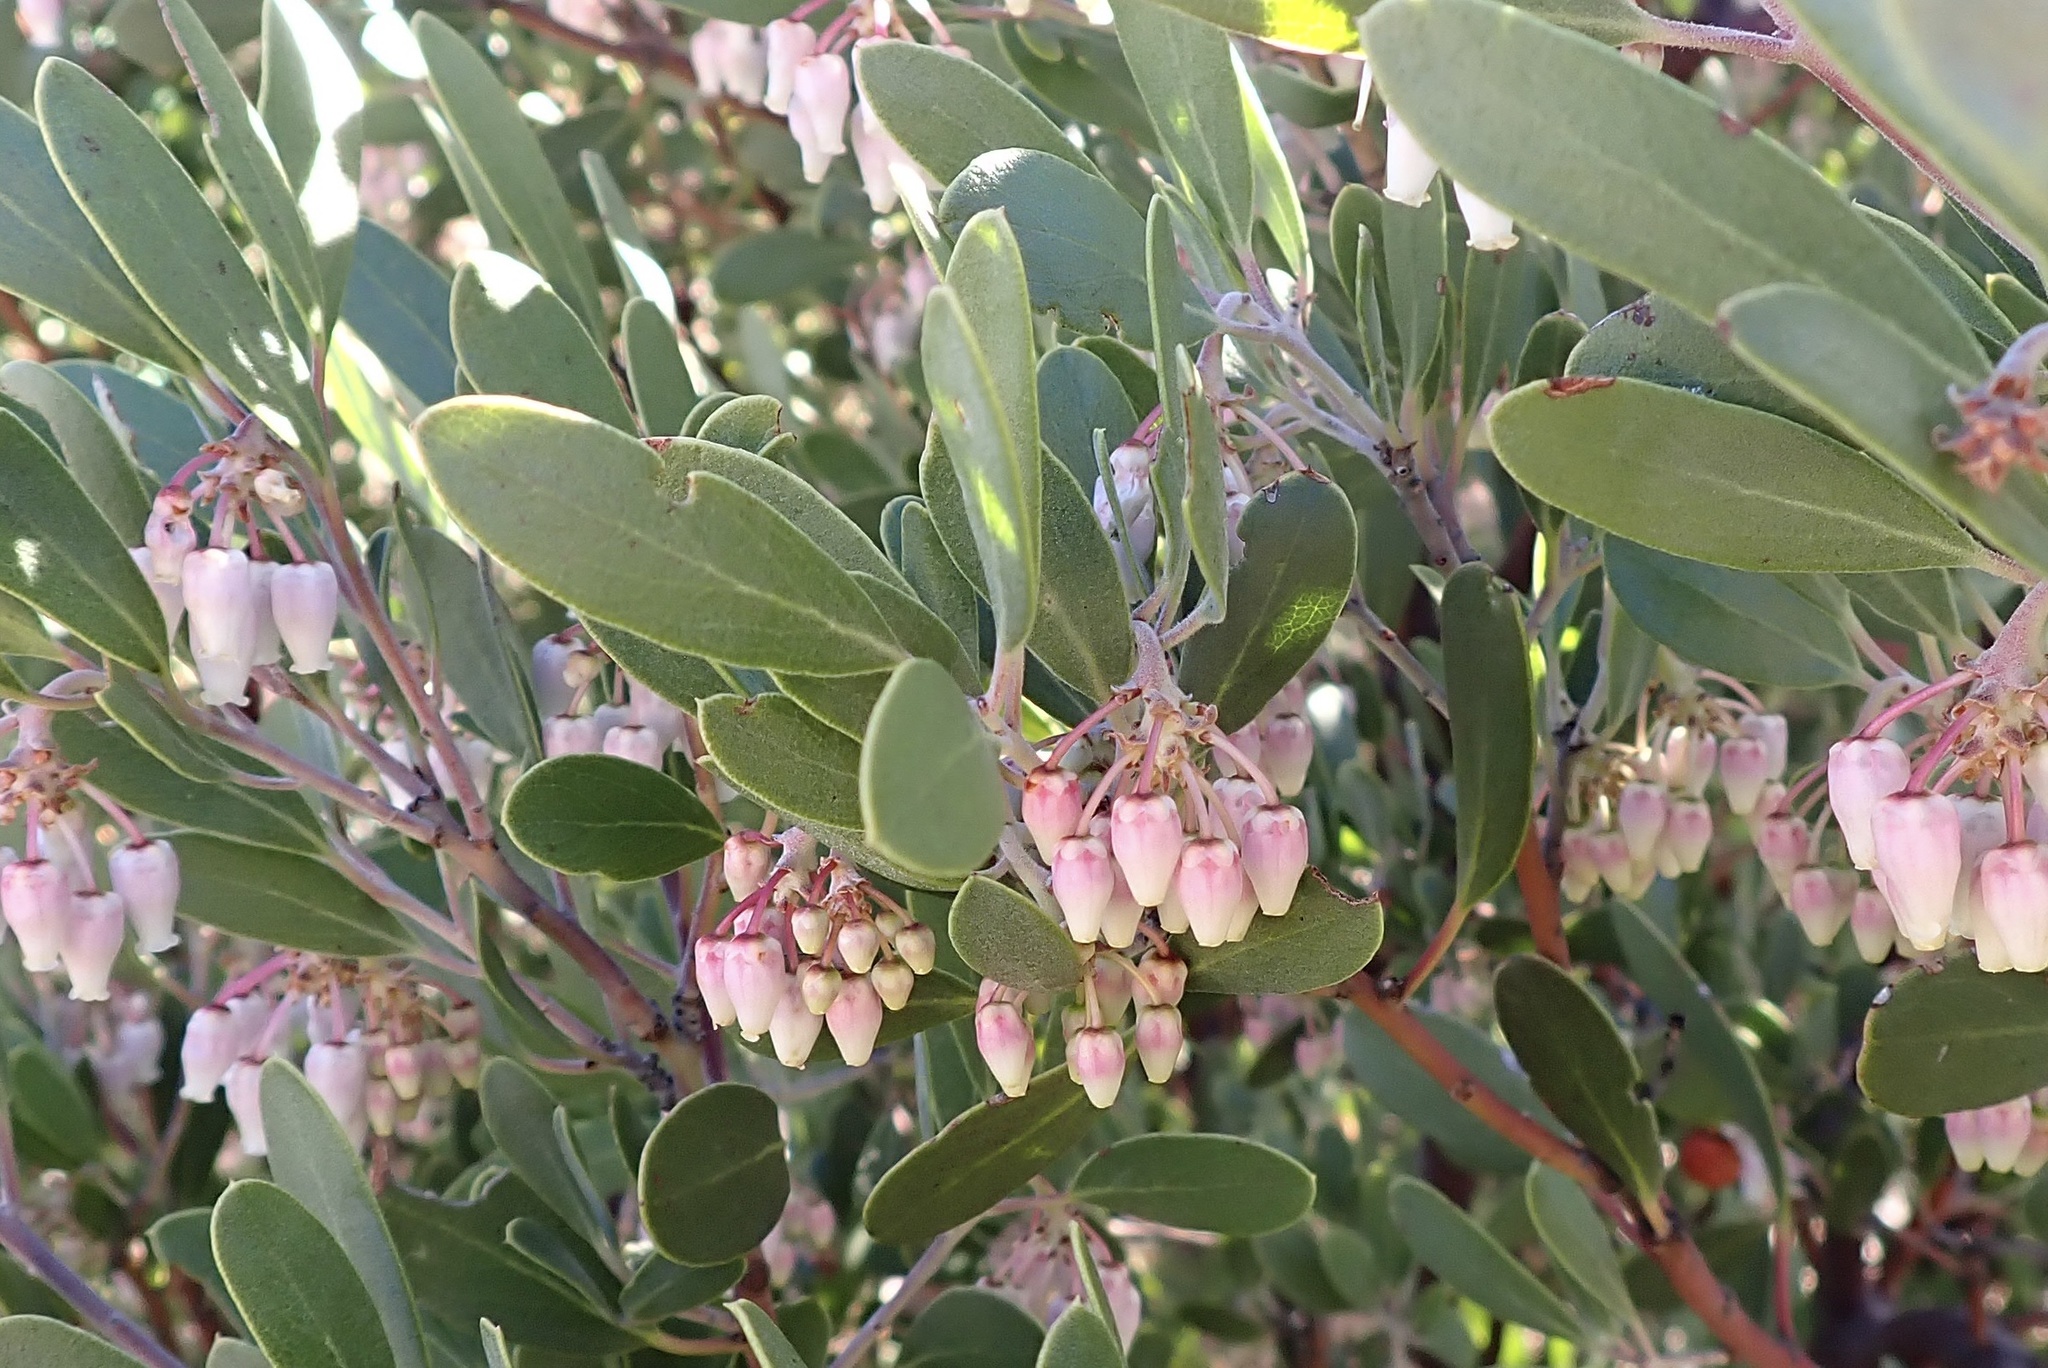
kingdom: Plantae
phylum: Tracheophyta
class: Magnoliopsida
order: Ericales
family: Ericaceae
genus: Arctostaphylos
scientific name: Arctostaphylos pungens
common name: Mexican manzanita
